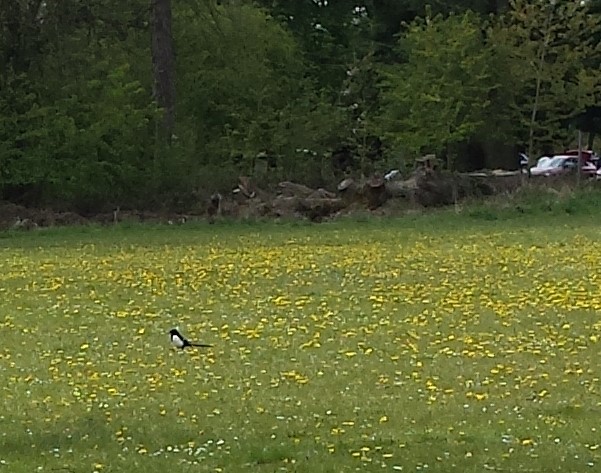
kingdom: Animalia
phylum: Chordata
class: Aves
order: Passeriformes
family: Corvidae
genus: Pica
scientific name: Pica pica
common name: Eurasian magpie
